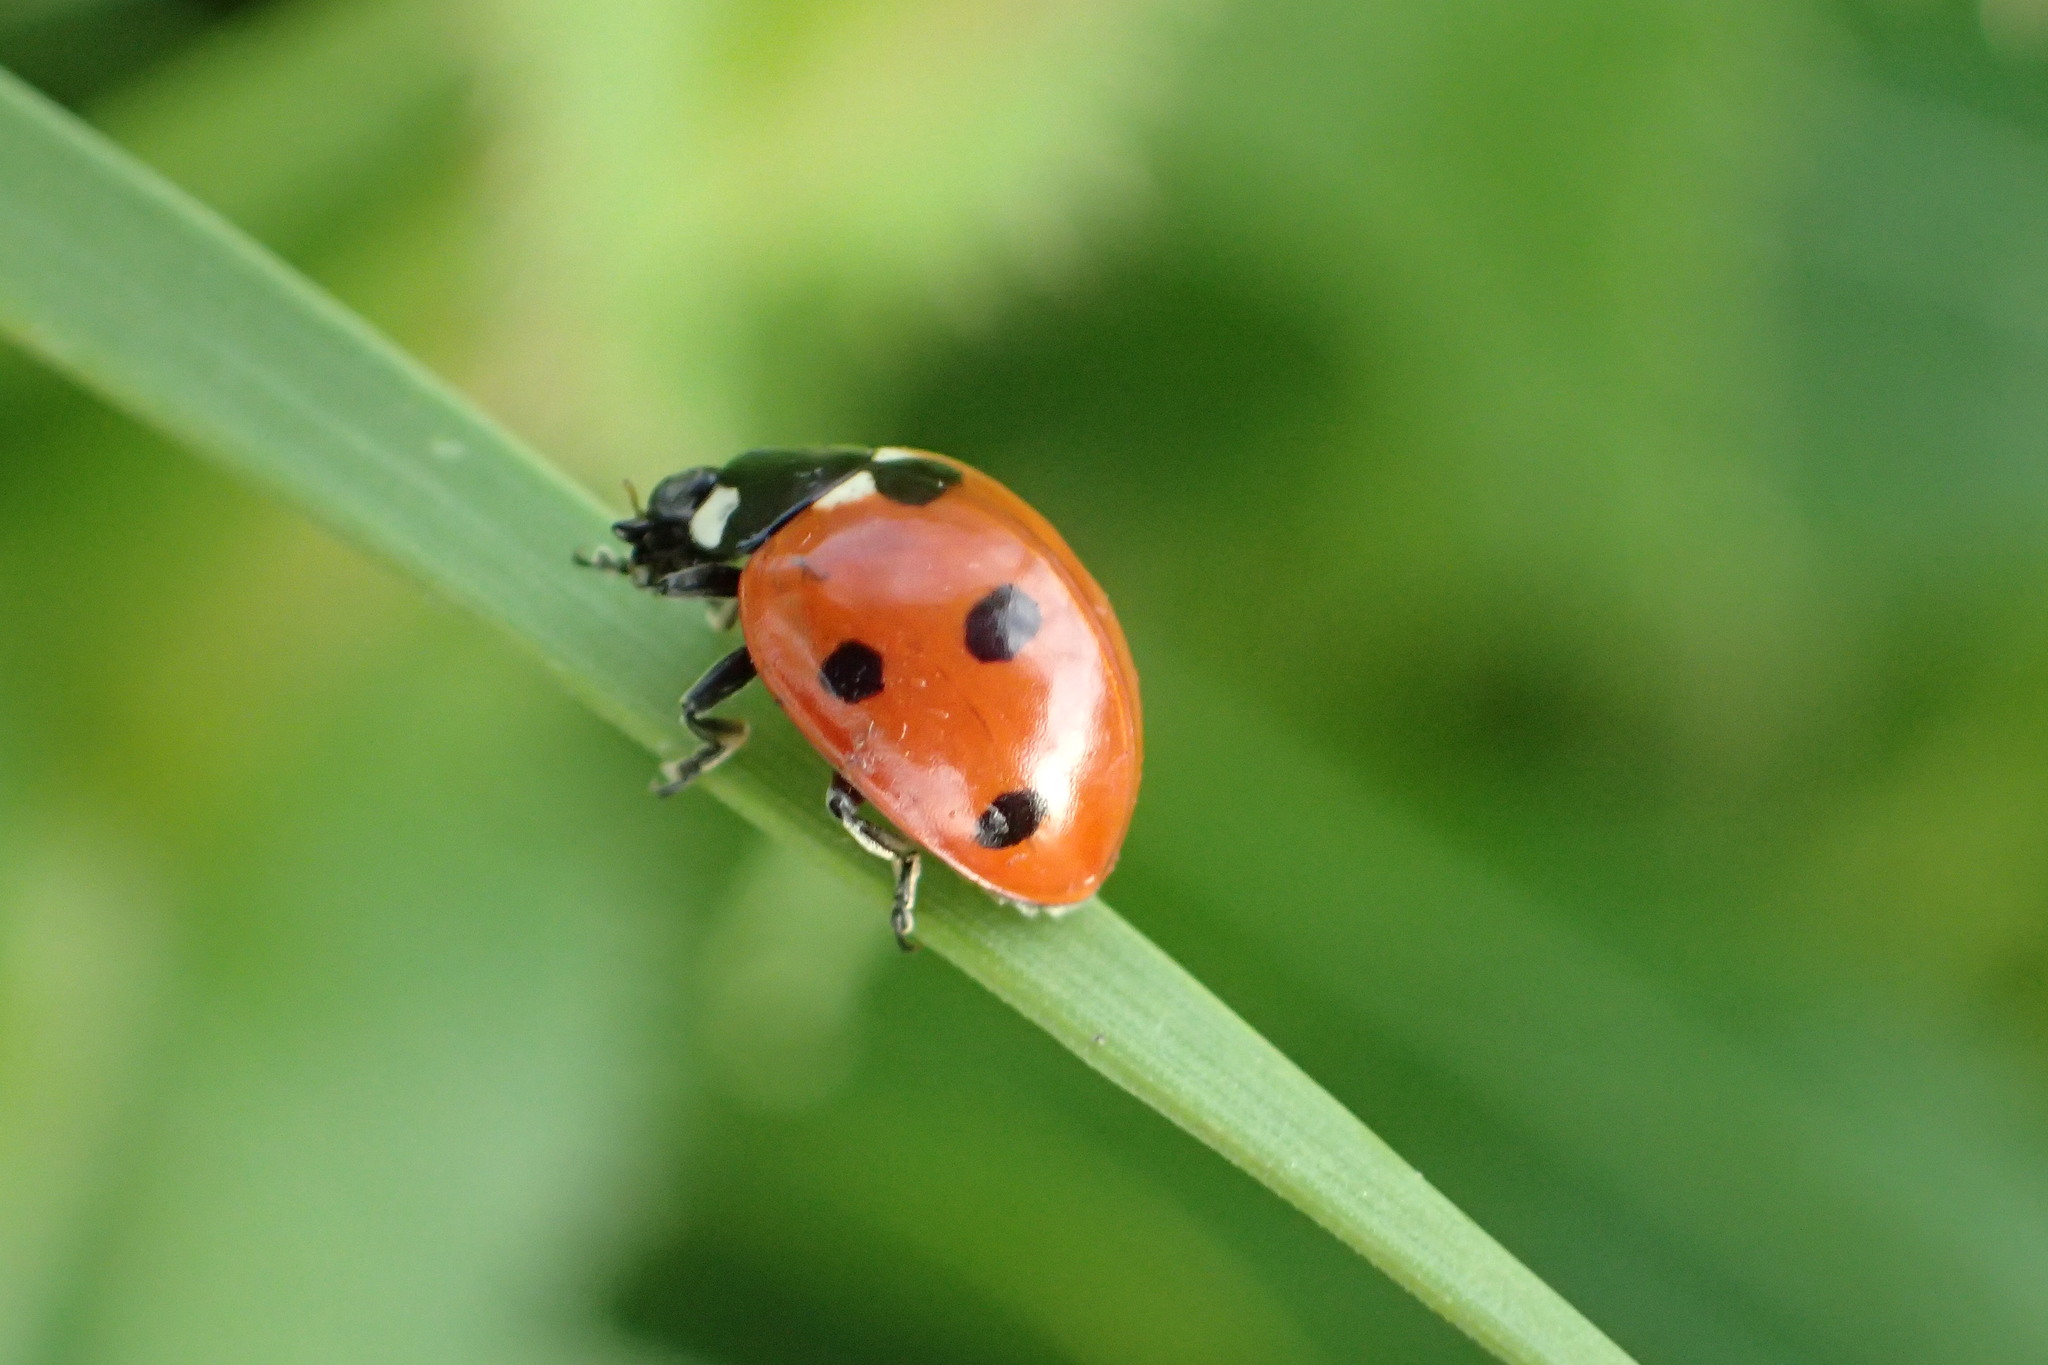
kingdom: Animalia
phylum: Arthropoda
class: Insecta
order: Coleoptera
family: Coccinellidae
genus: Coccinella
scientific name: Coccinella septempunctata
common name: Sevenspotted lady beetle
